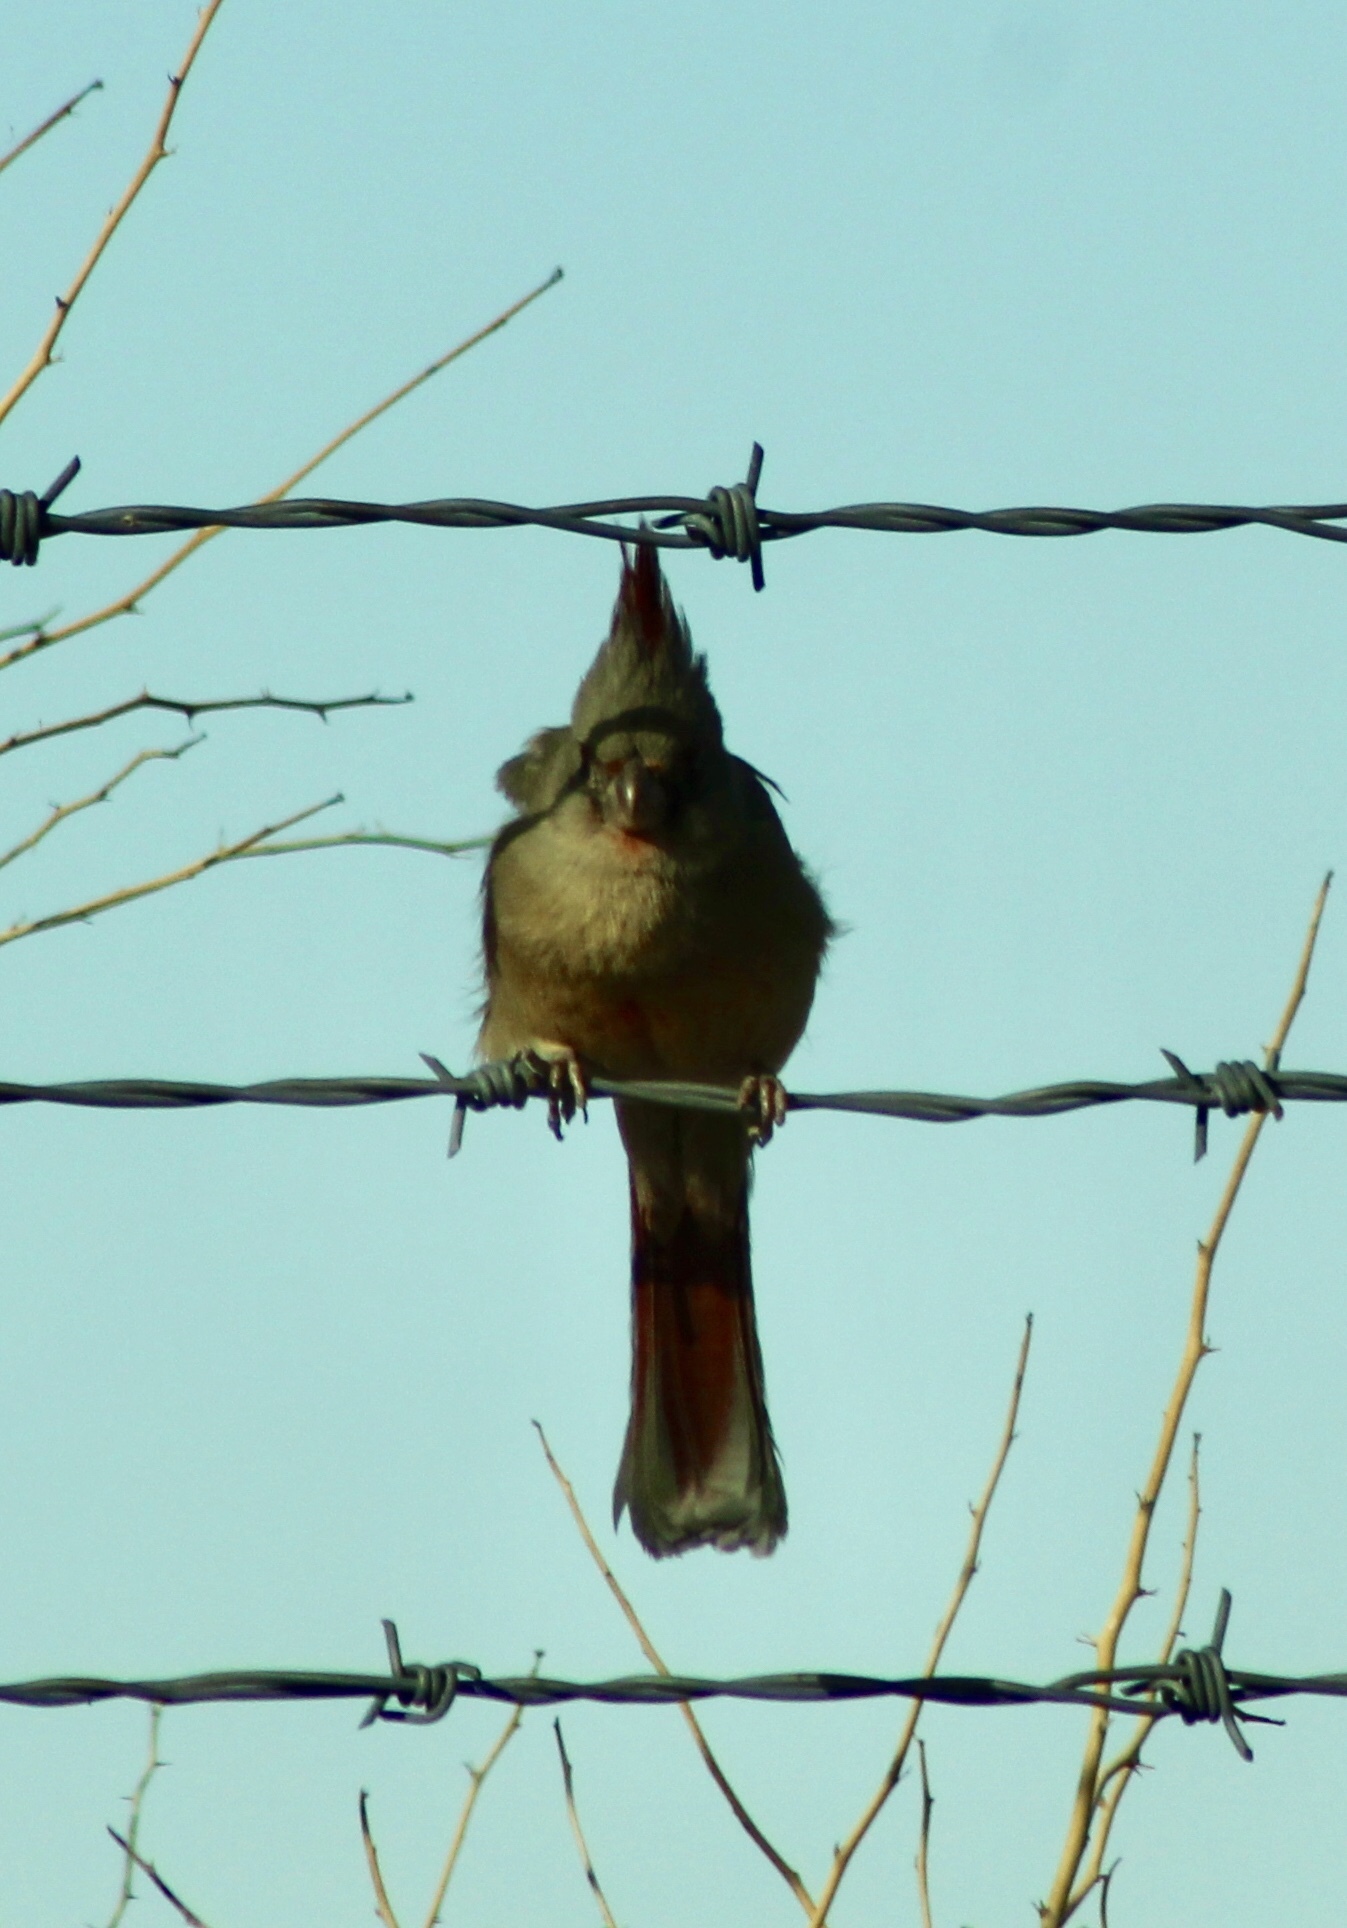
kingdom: Animalia
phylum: Chordata
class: Aves
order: Passeriformes
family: Cardinalidae
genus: Cardinalis
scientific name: Cardinalis sinuatus
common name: Pyrrhuloxia
